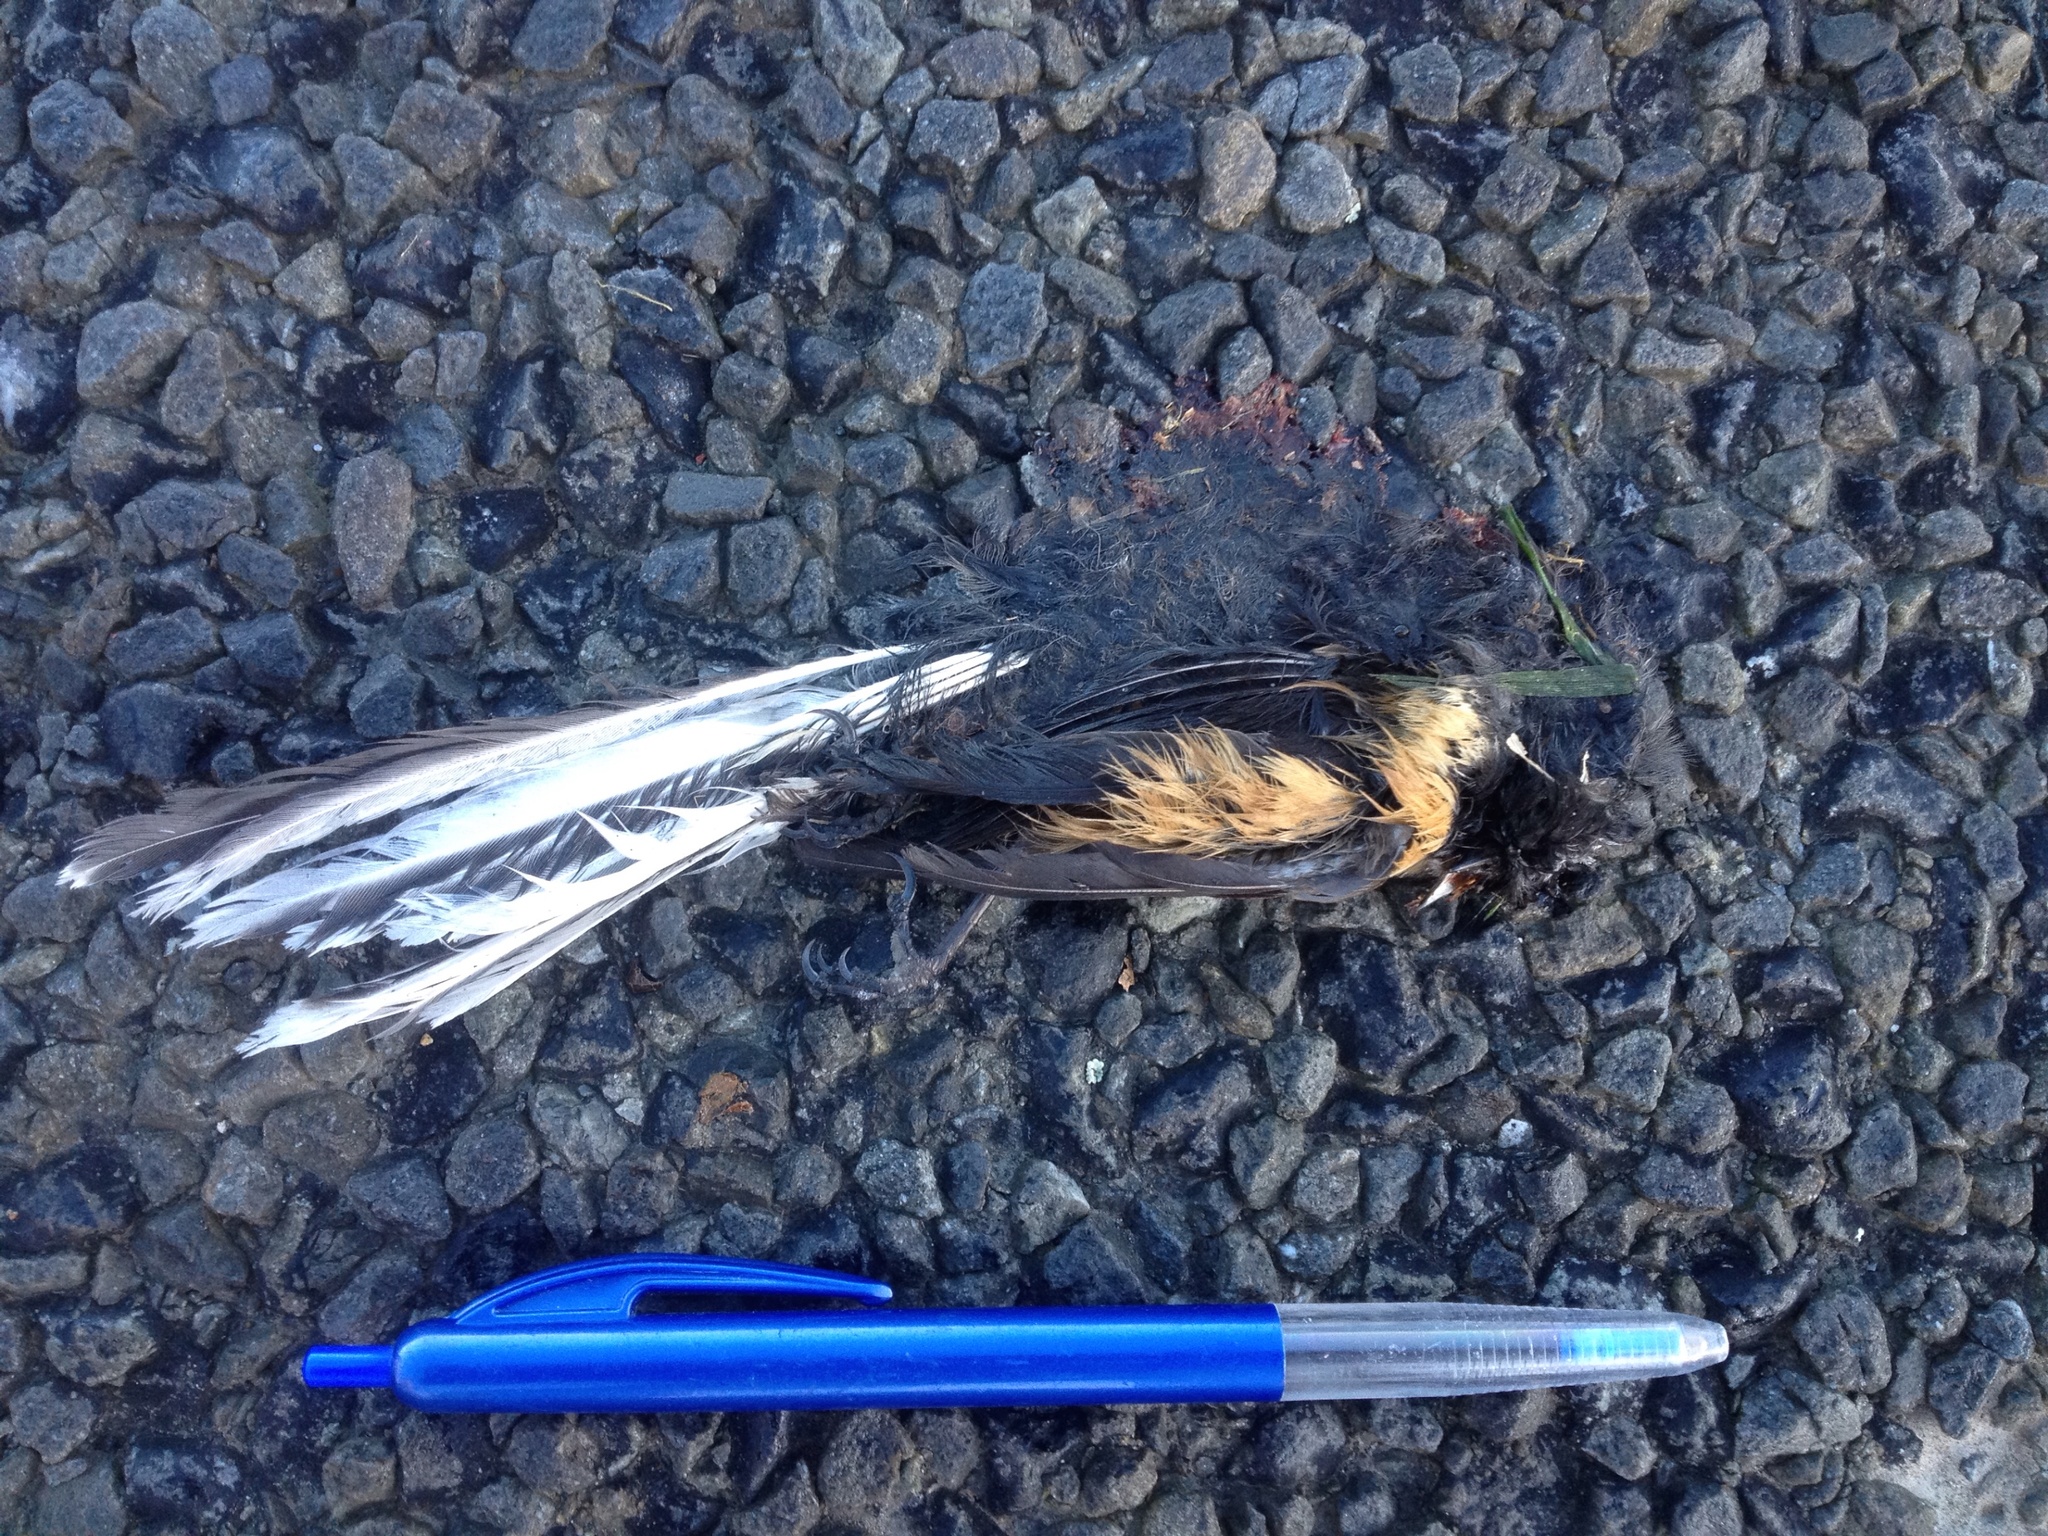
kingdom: Animalia
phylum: Chordata
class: Aves
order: Passeriformes
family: Rhipiduridae
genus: Rhipidura
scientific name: Rhipidura fuliginosa
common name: New zealand fantail
